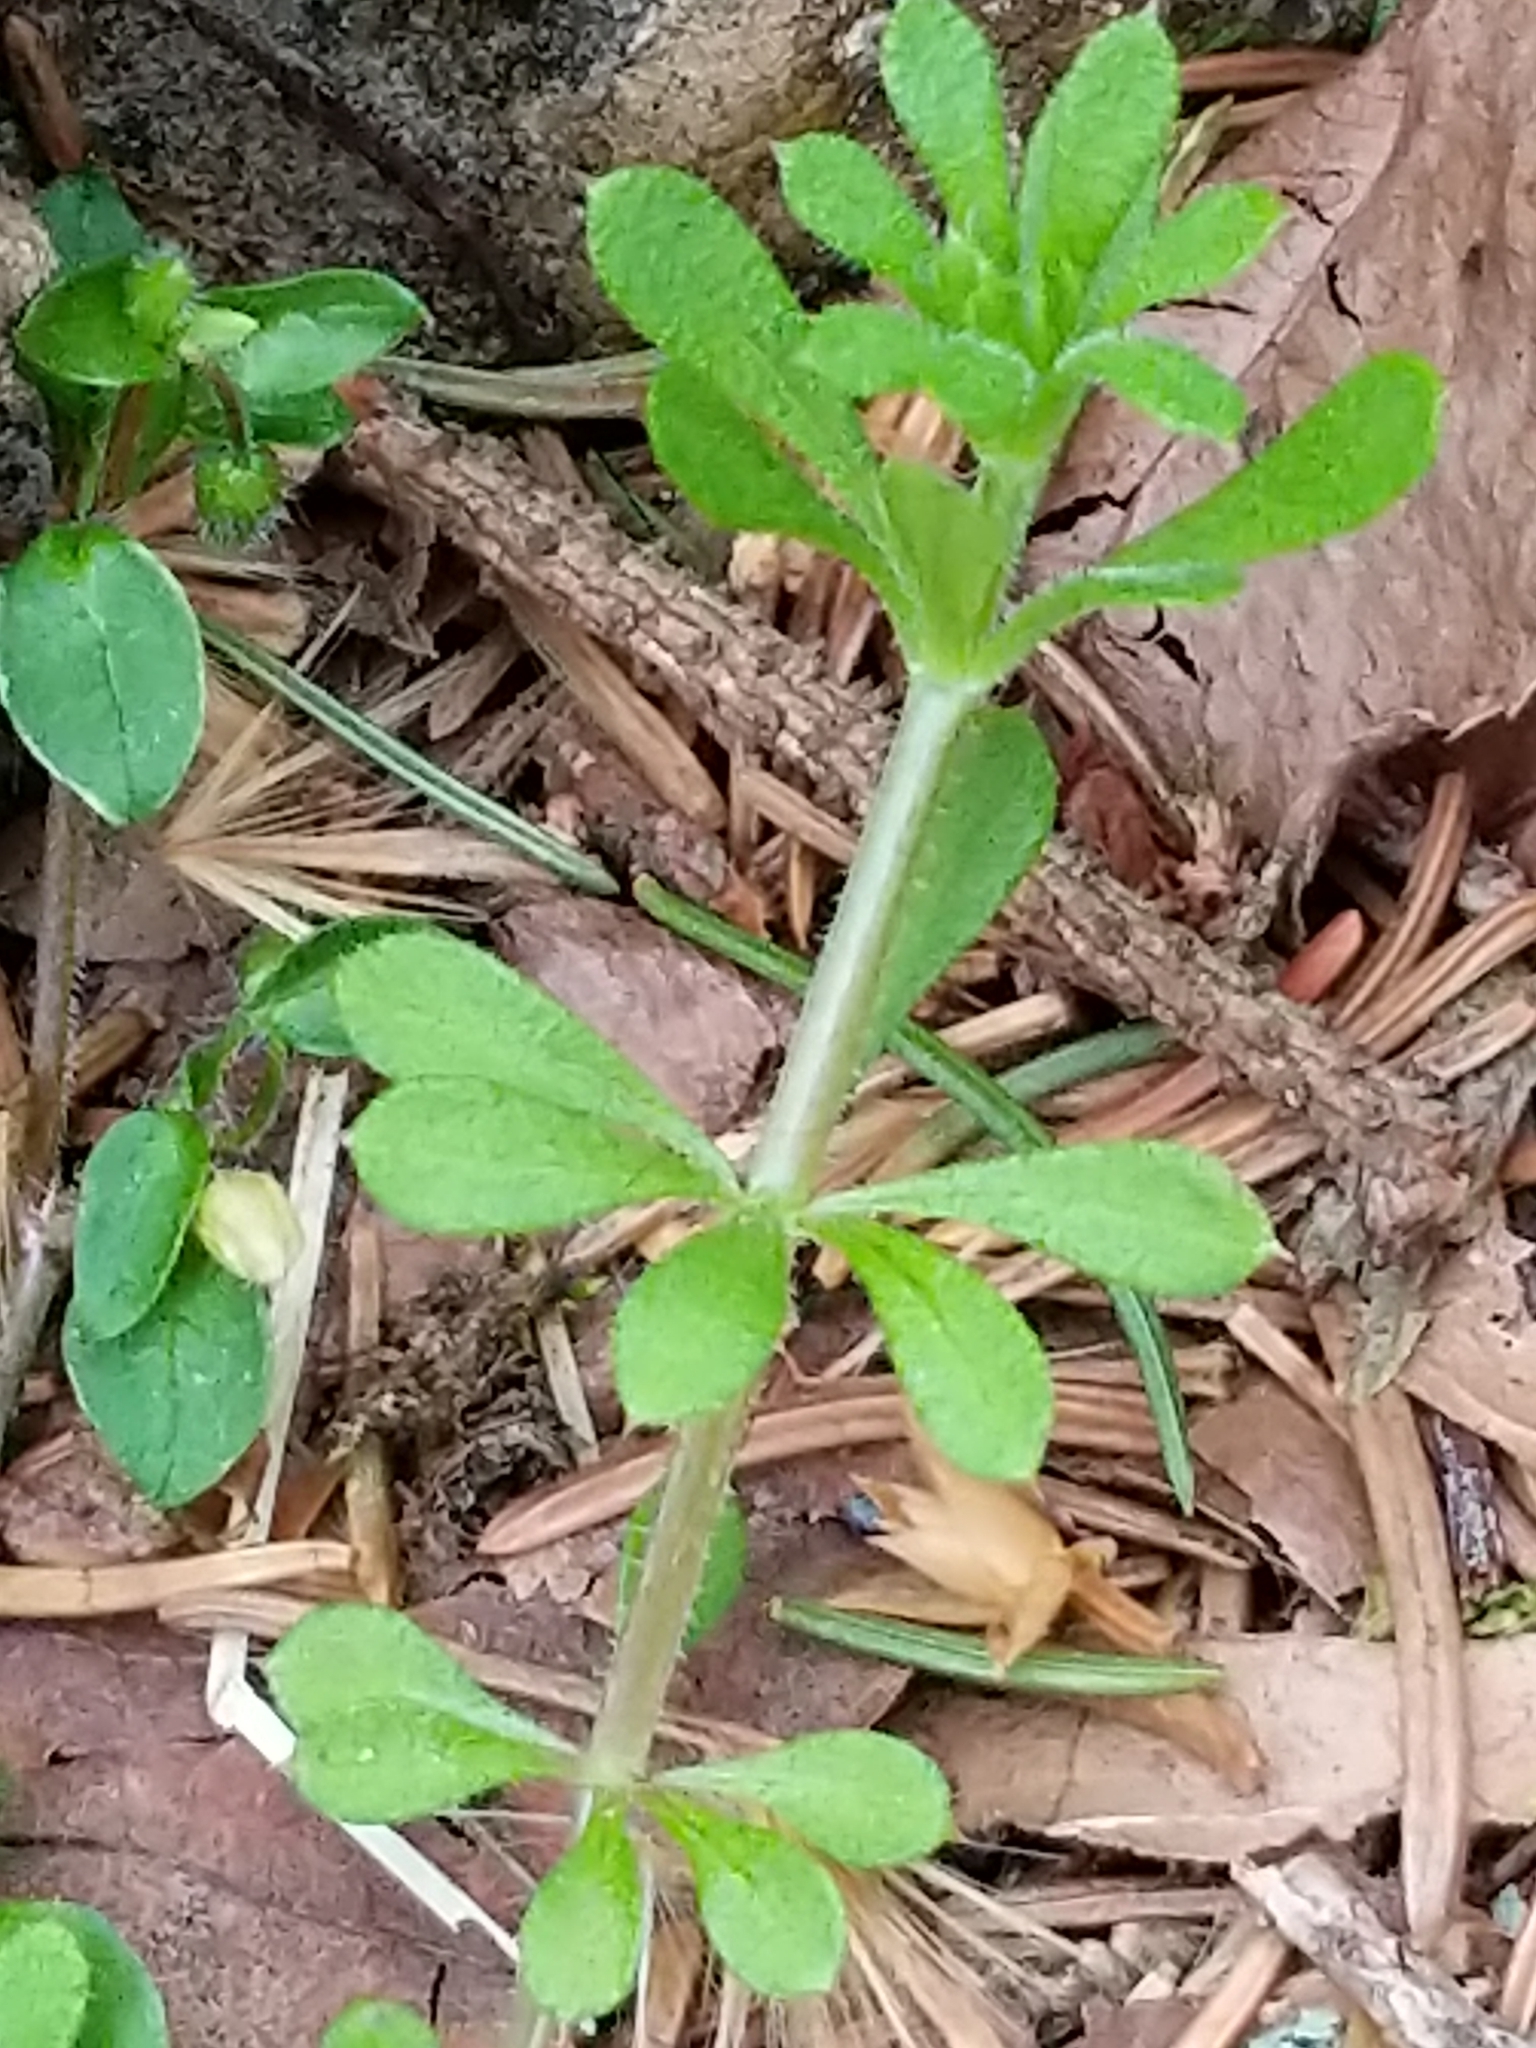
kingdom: Plantae
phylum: Tracheophyta
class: Magnoliopsida
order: Gentianales
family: Rubiaceae
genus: Galium
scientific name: Galium aparine
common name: Cleavers
